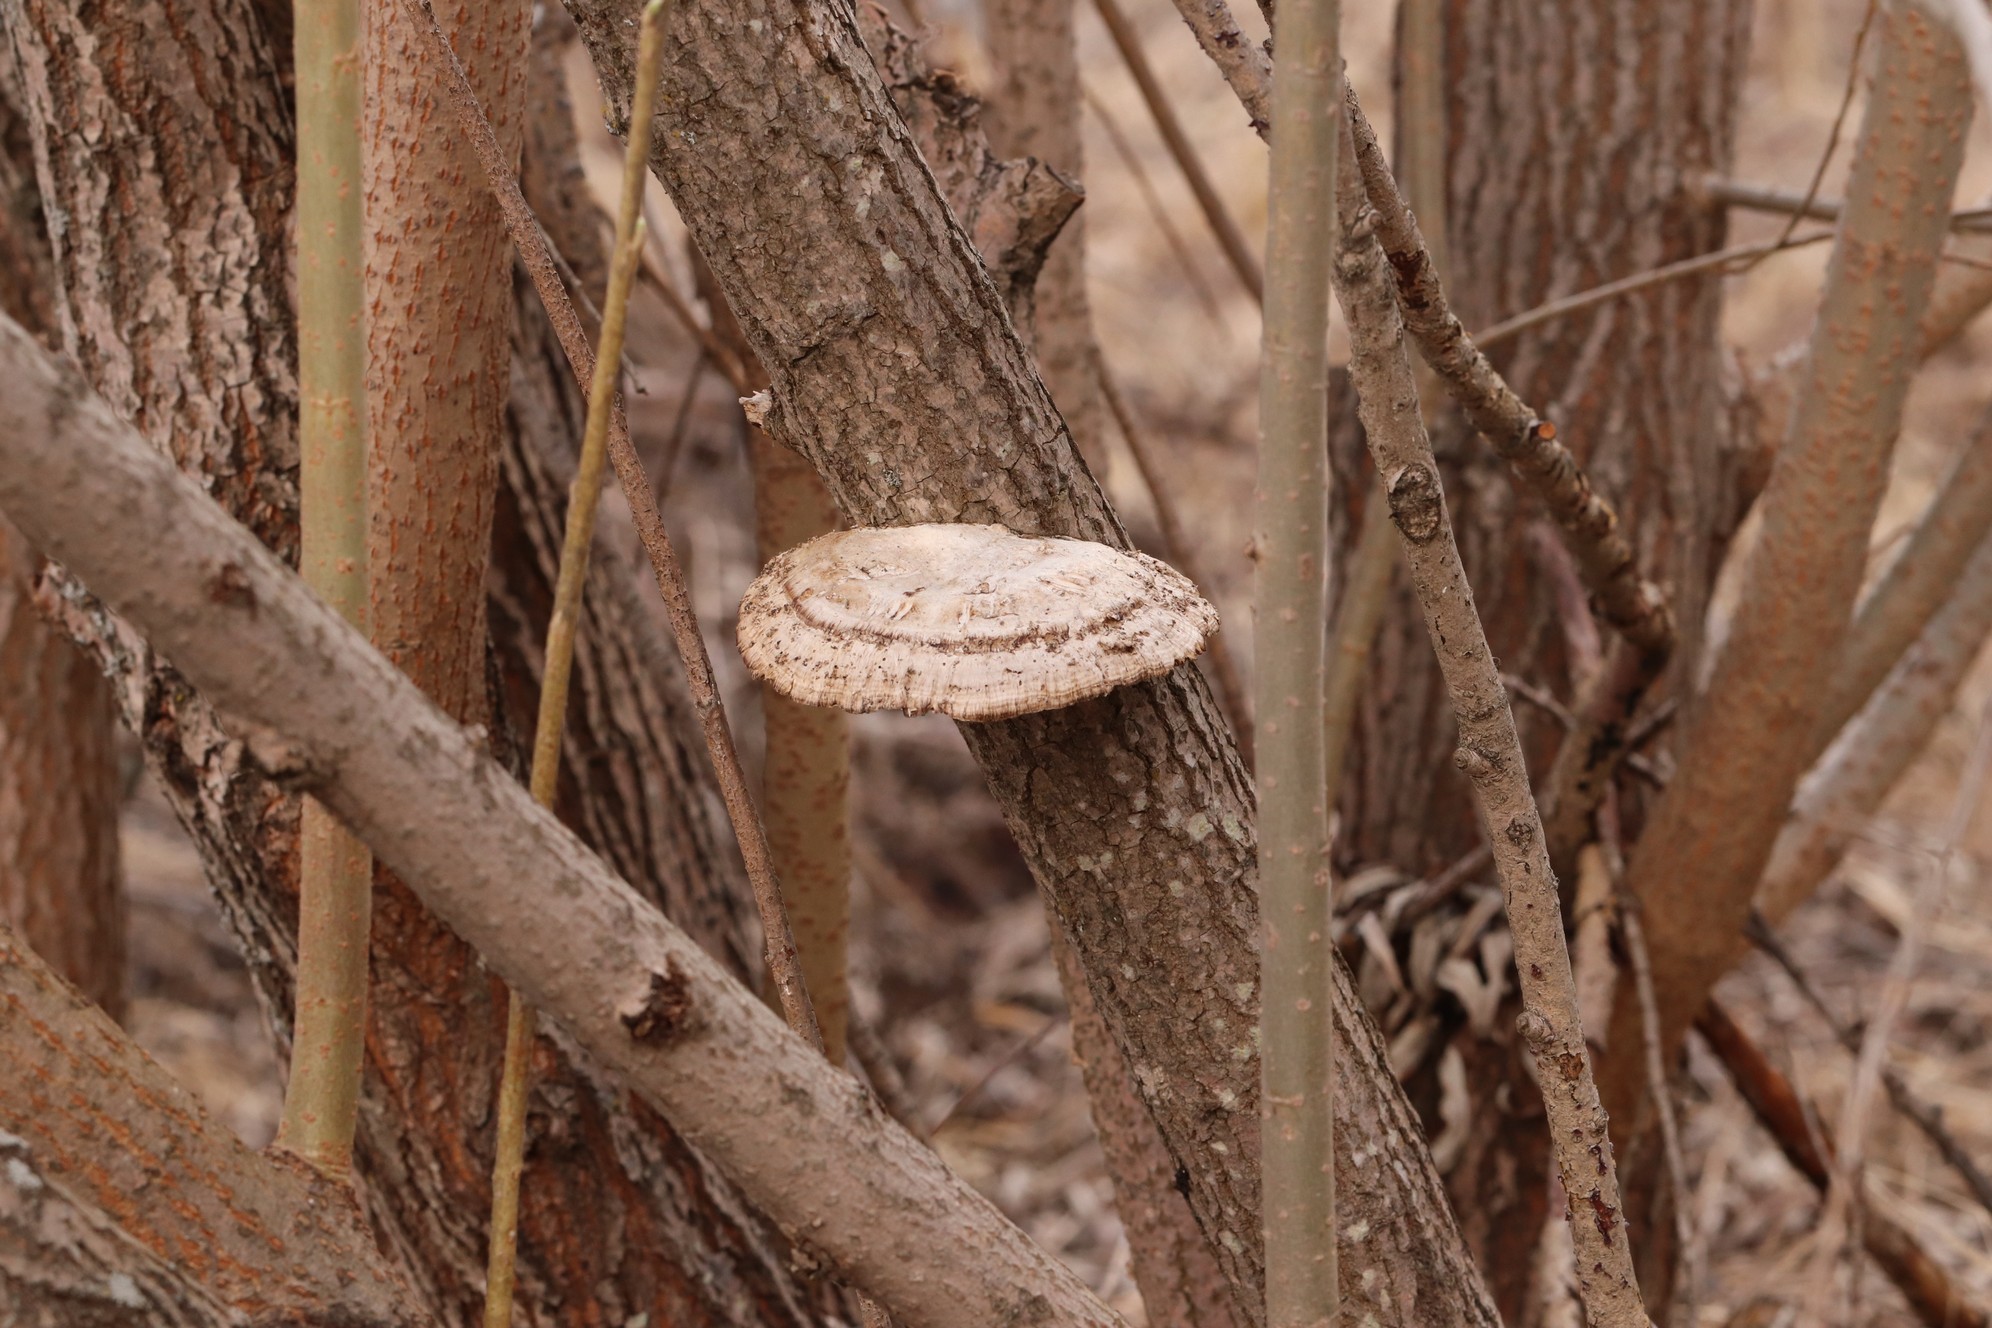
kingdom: Fungi
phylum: Basidiomycota
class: Agaricomycetes
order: Polyporales
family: Polyporaceae
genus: Daedaleopsis
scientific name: Daedaleopsis confragosa
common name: Blushing bracket
